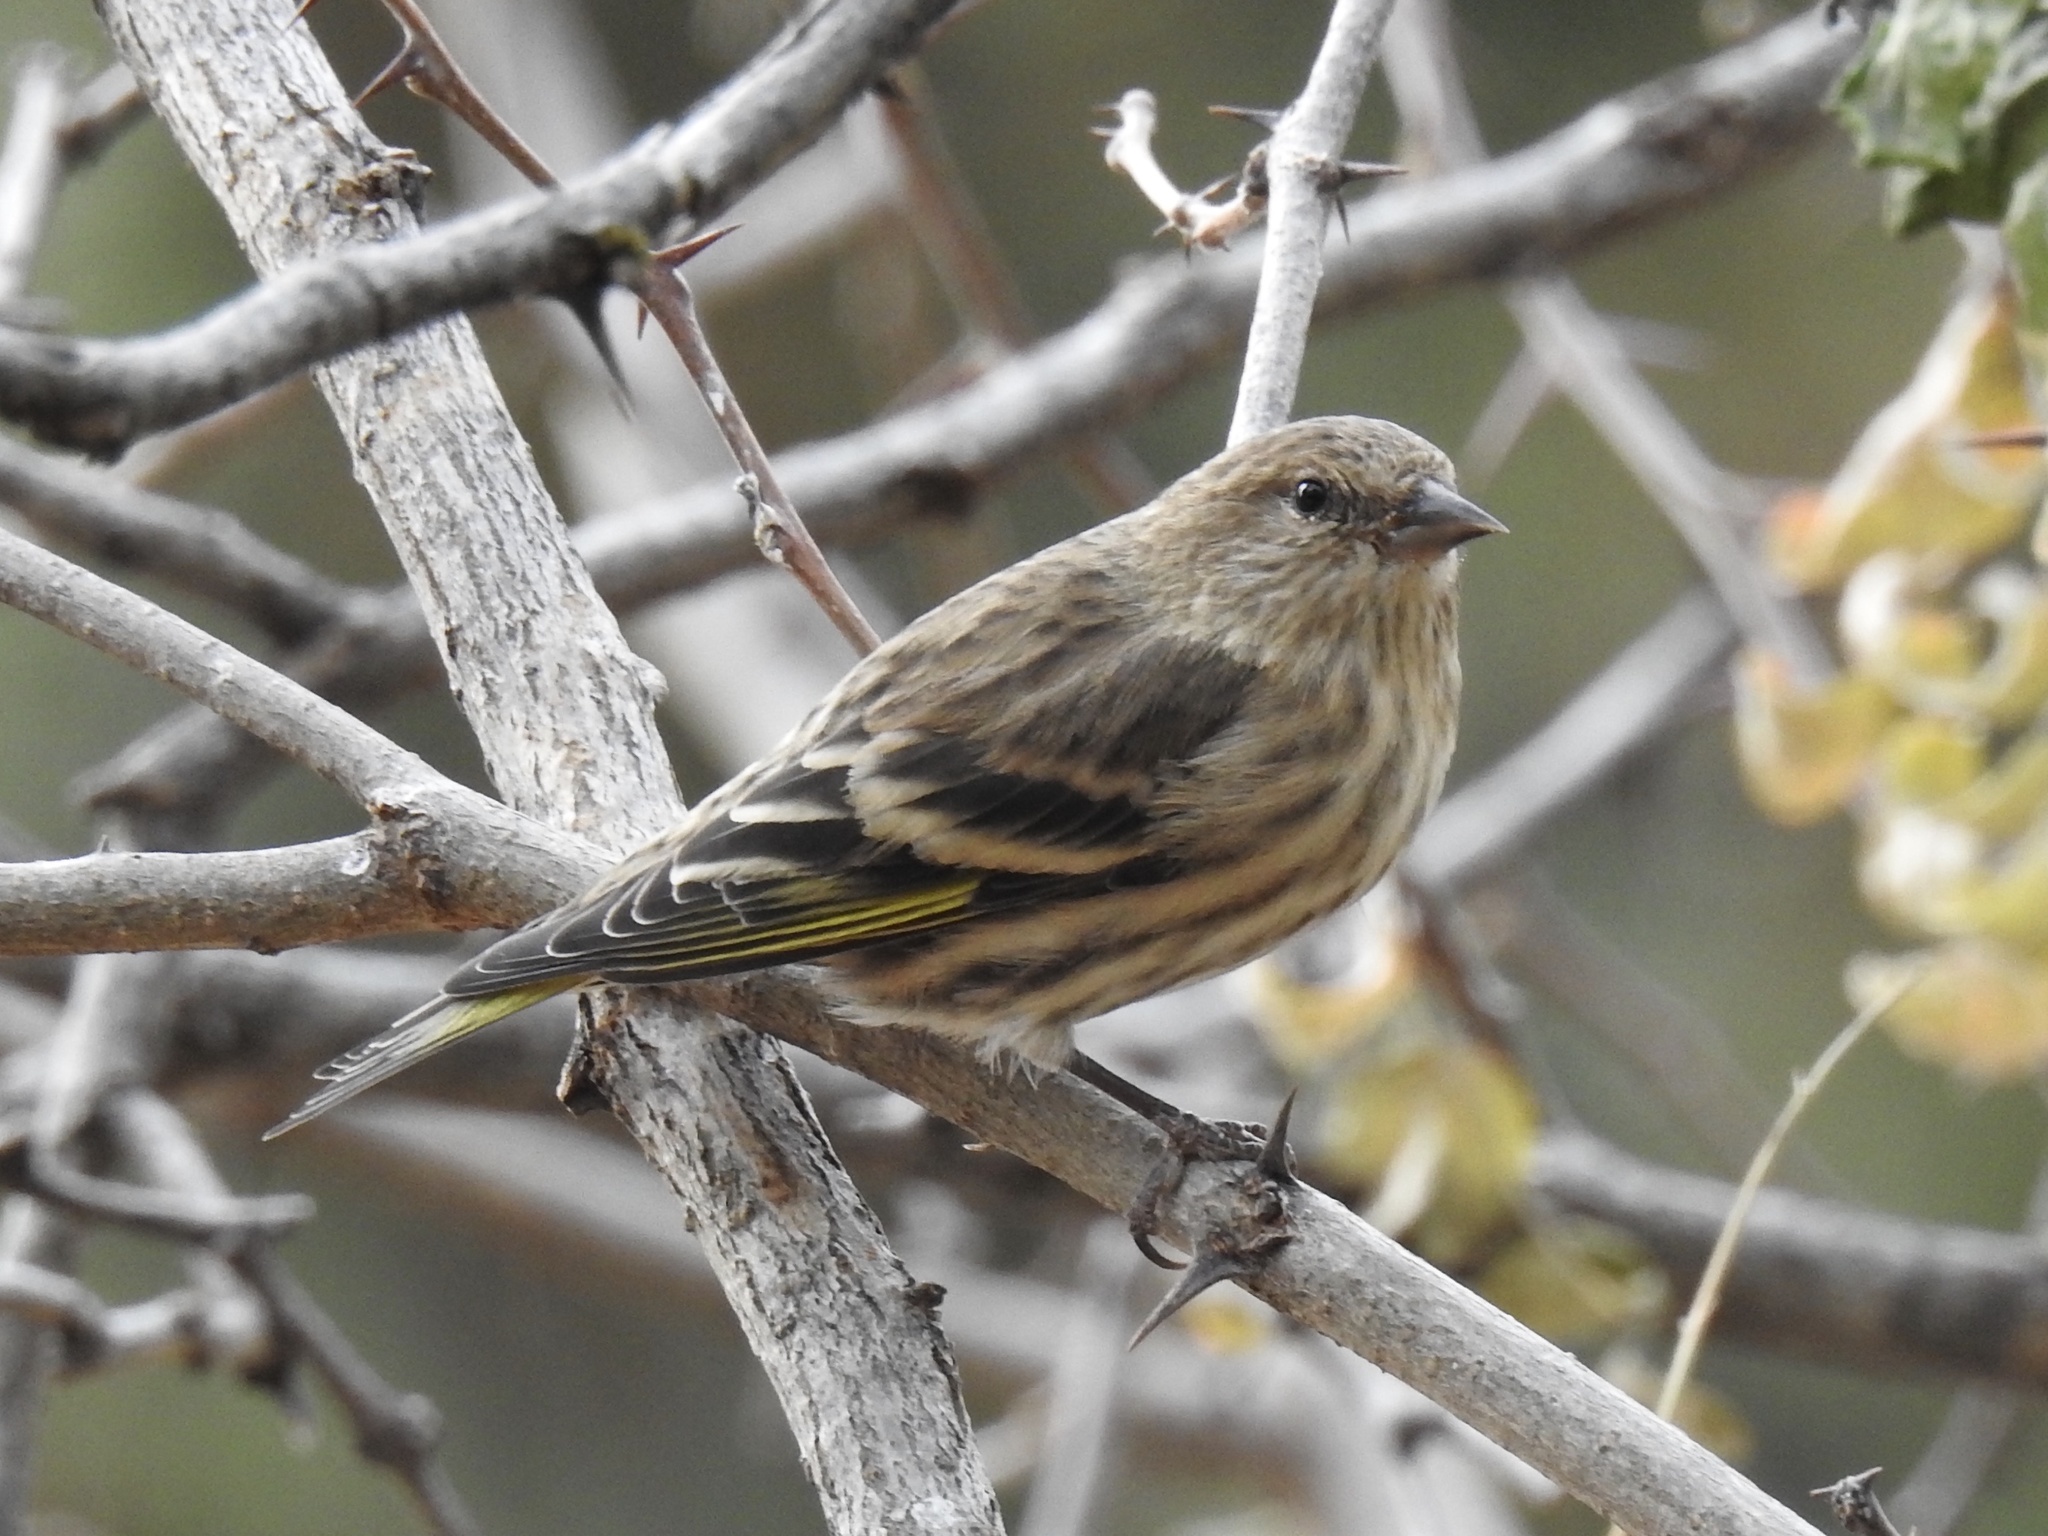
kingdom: Animalia
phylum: Chordata
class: Aves
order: Passeriformes
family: Fringillidae
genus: Spinus
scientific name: Spinus pinus
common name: Pine siskin
